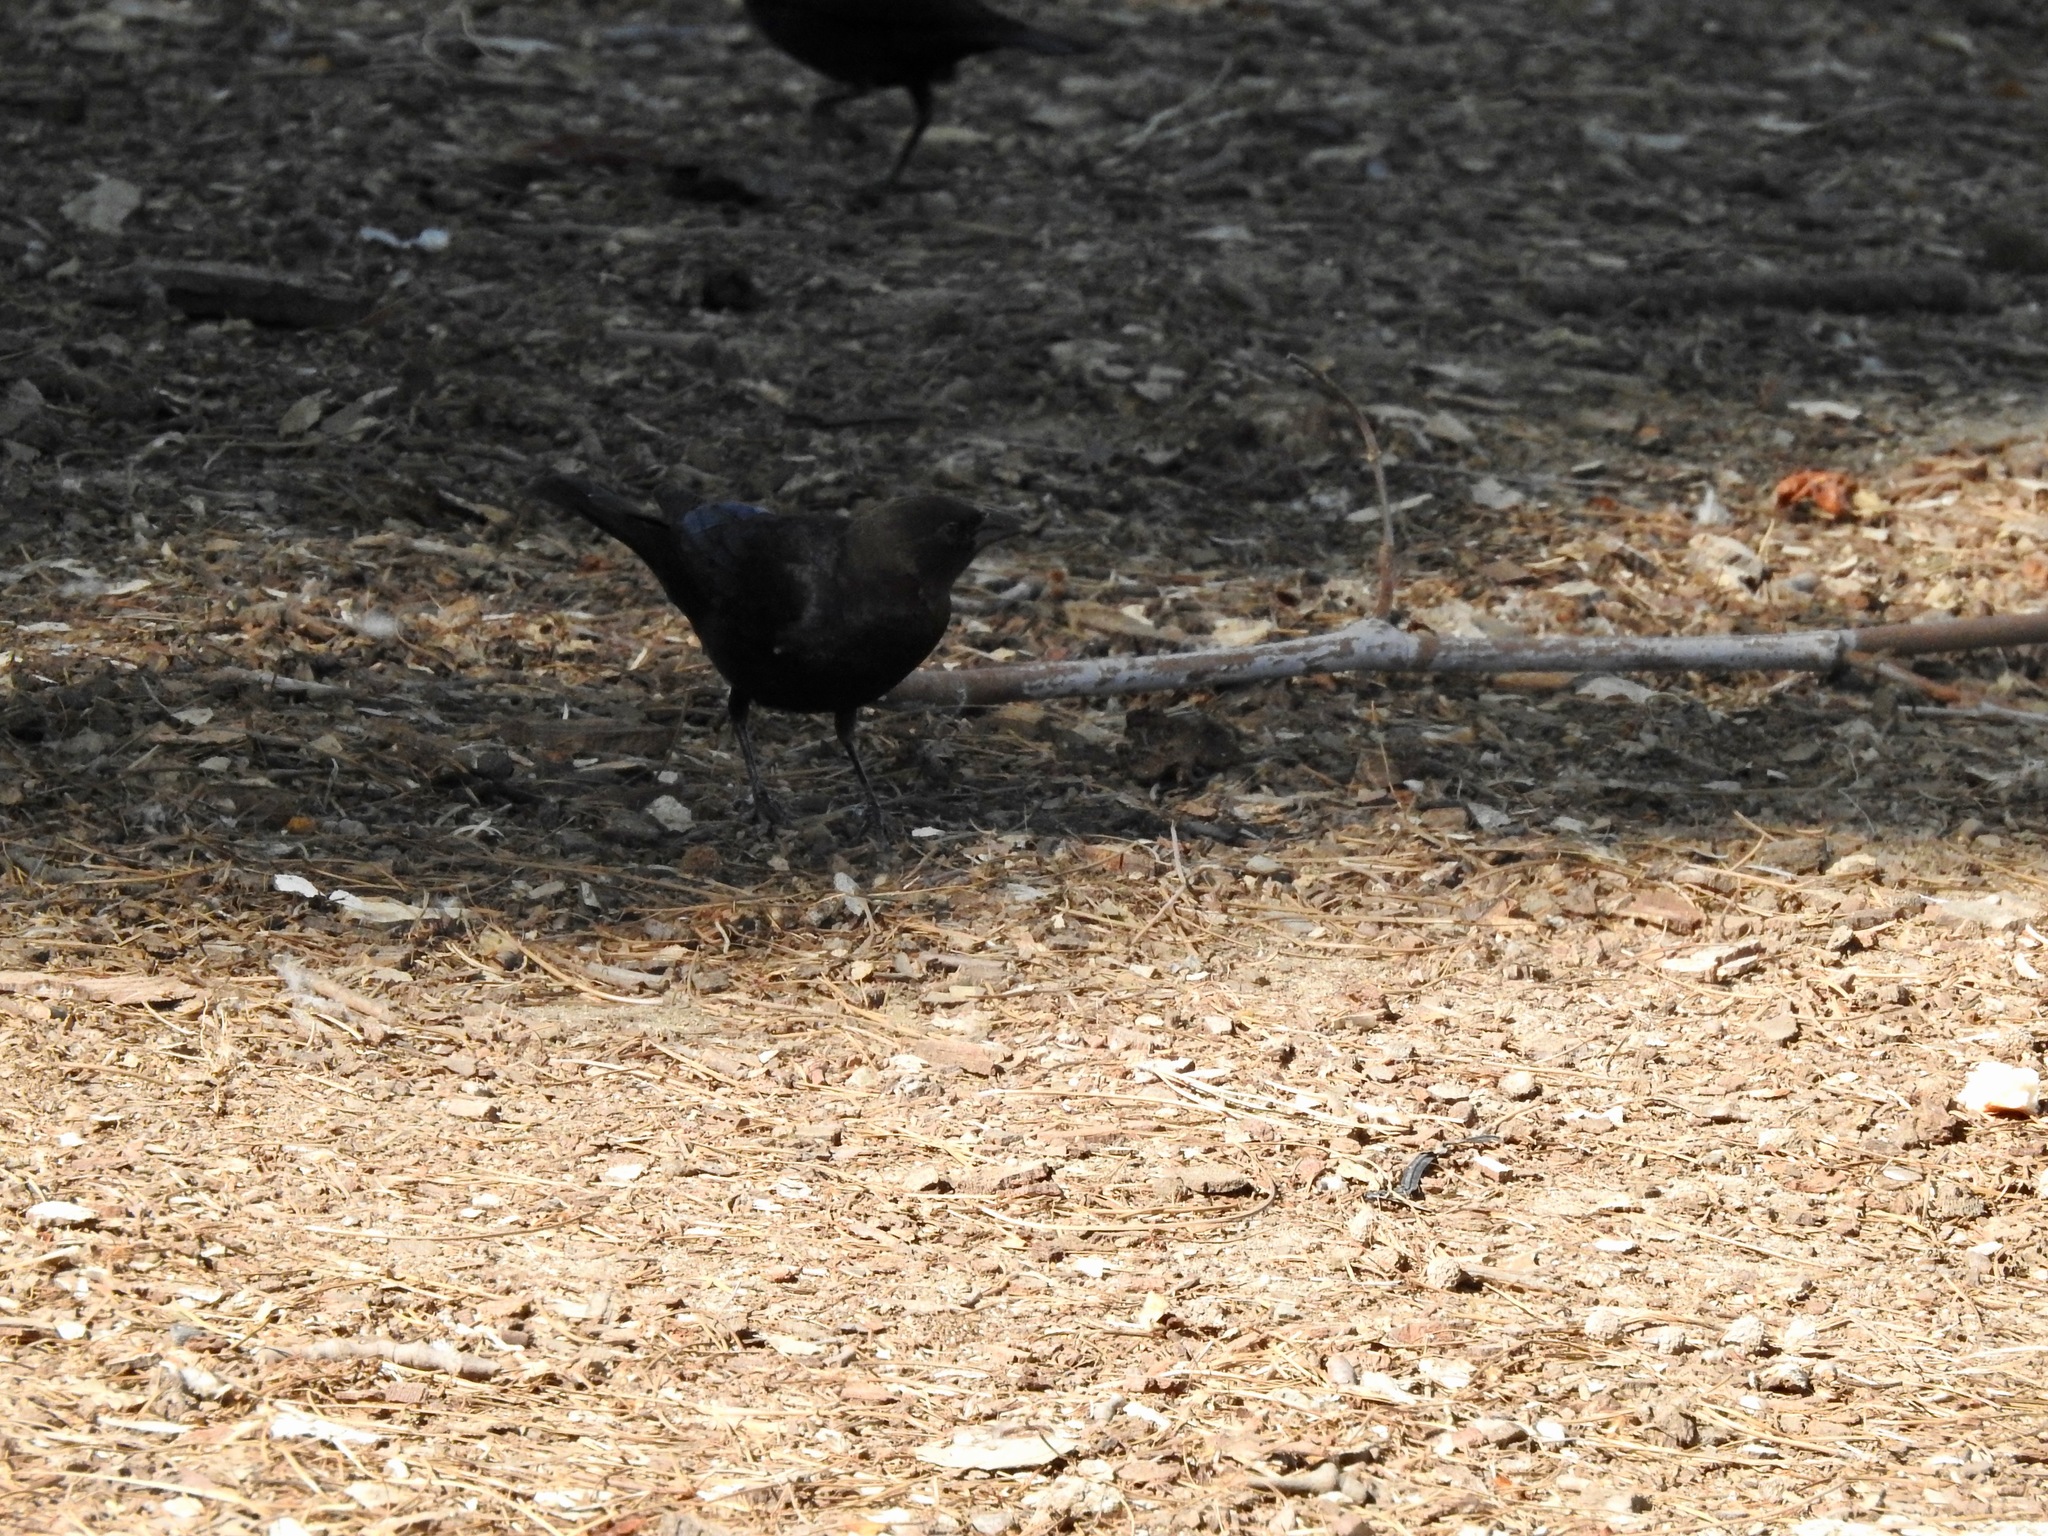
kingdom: Animalia
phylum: Chordata
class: Aves
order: Passeriformes
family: Icteridae
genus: Molothrus
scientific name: Molothrus ater
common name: Brown-headed cowbird
